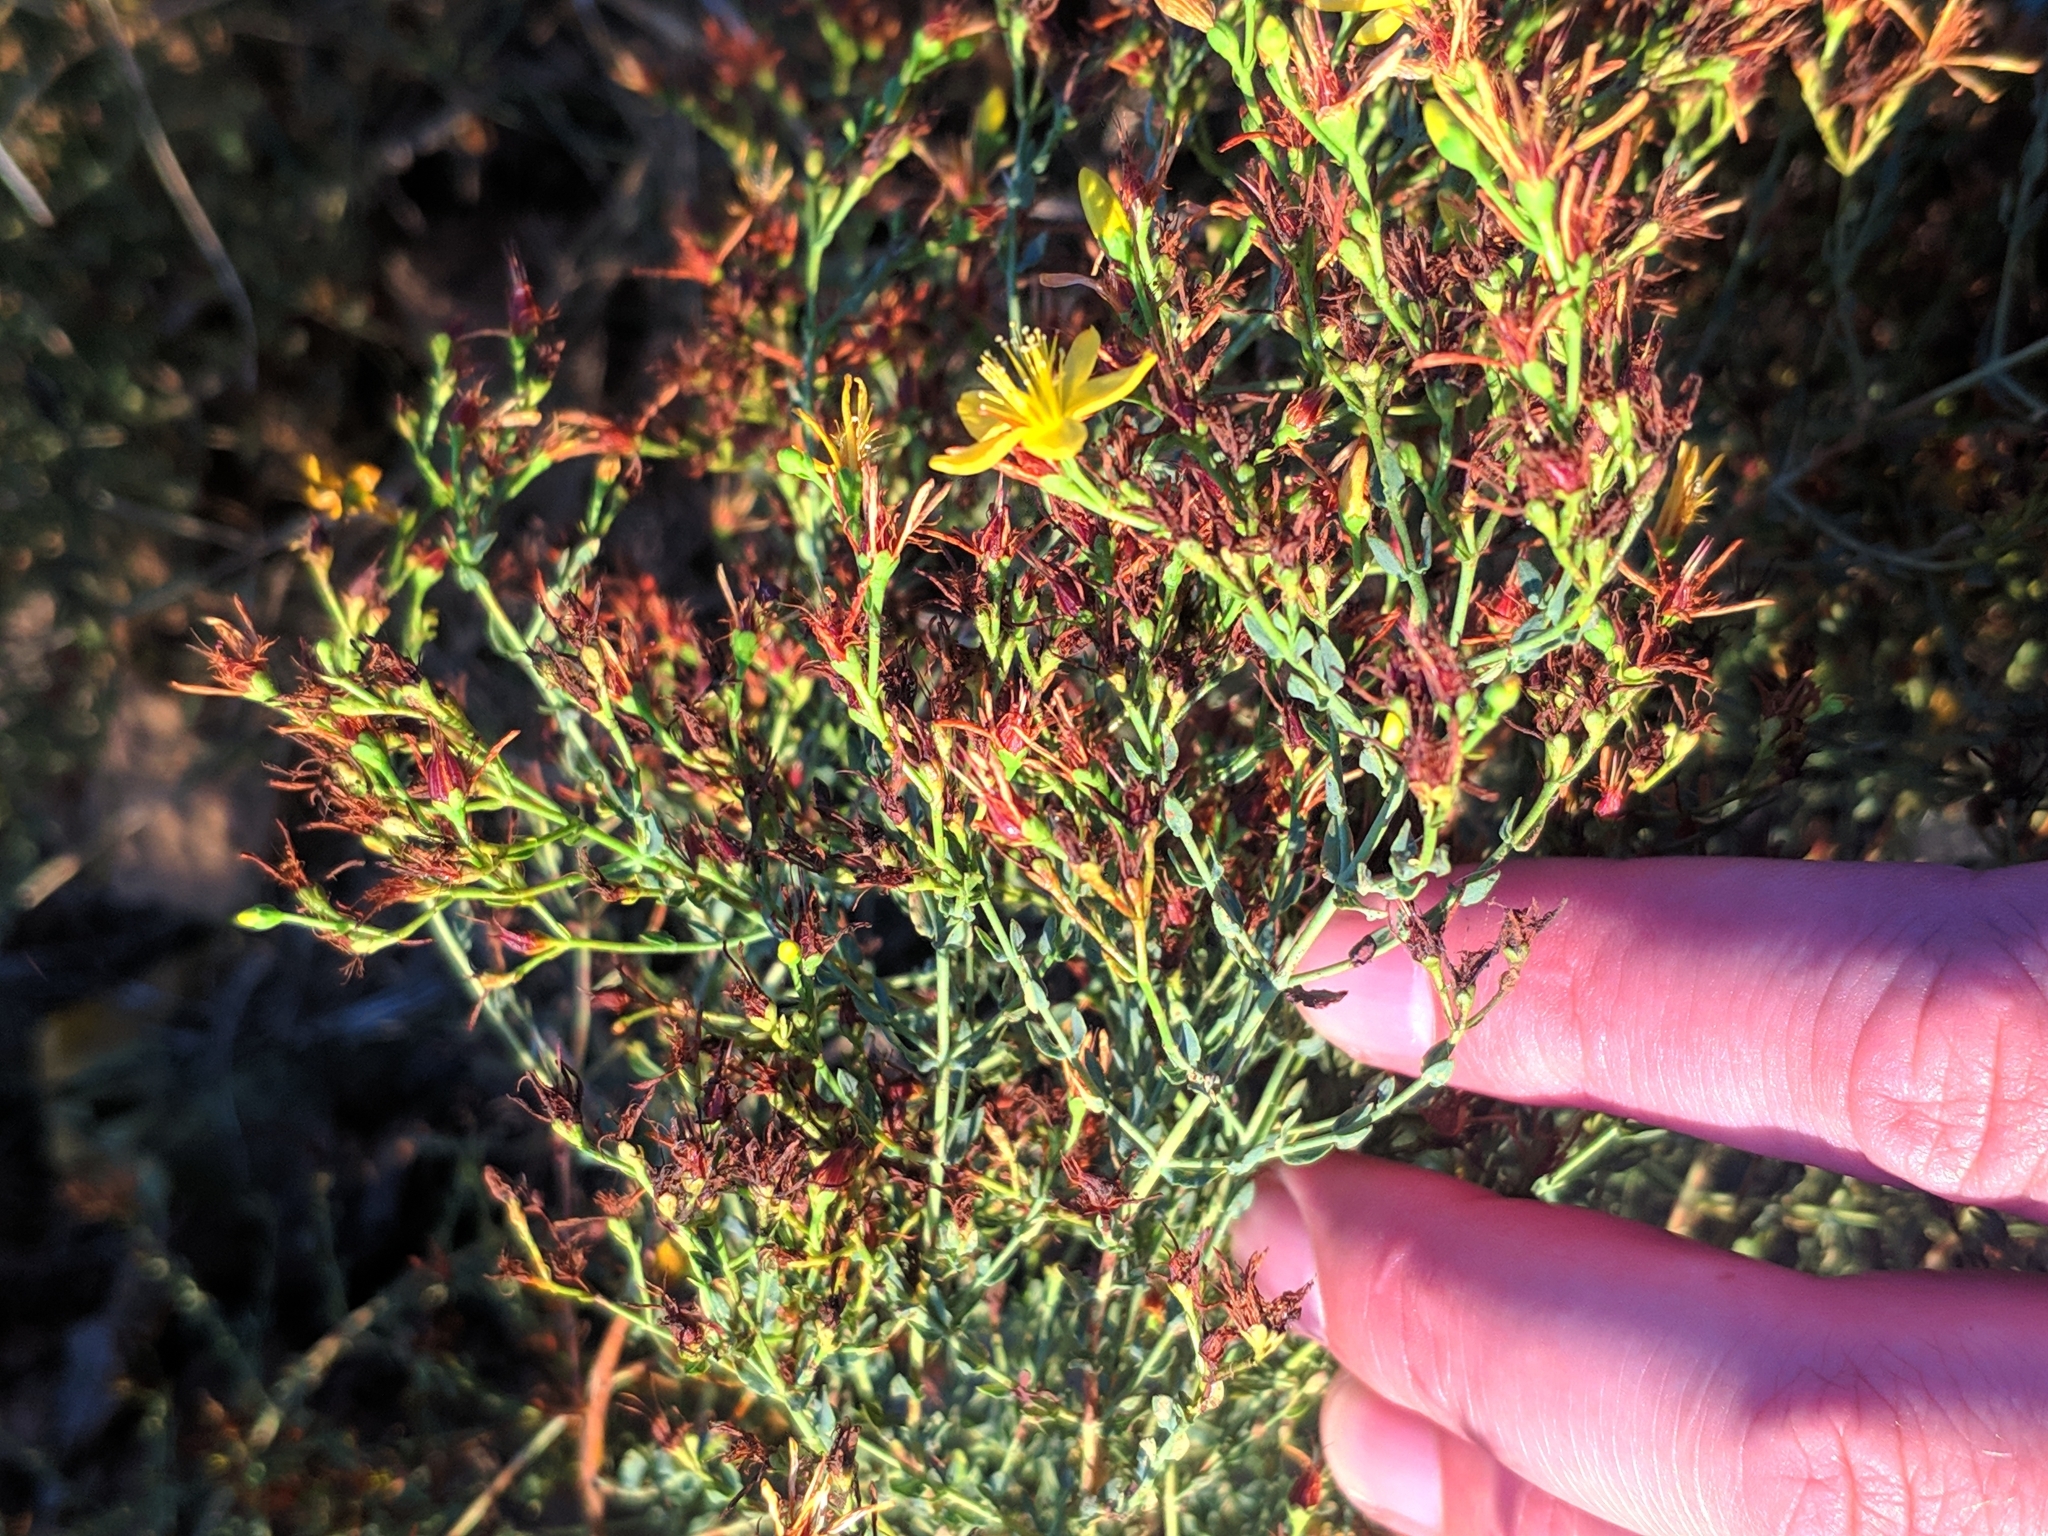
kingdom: Plantae
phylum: Tracheophyta
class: Magnoliopsida
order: Malpighiales
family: Hypericaceae
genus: Hypericum
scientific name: Hypericum triquetrifolium
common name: Tangled hypericum
